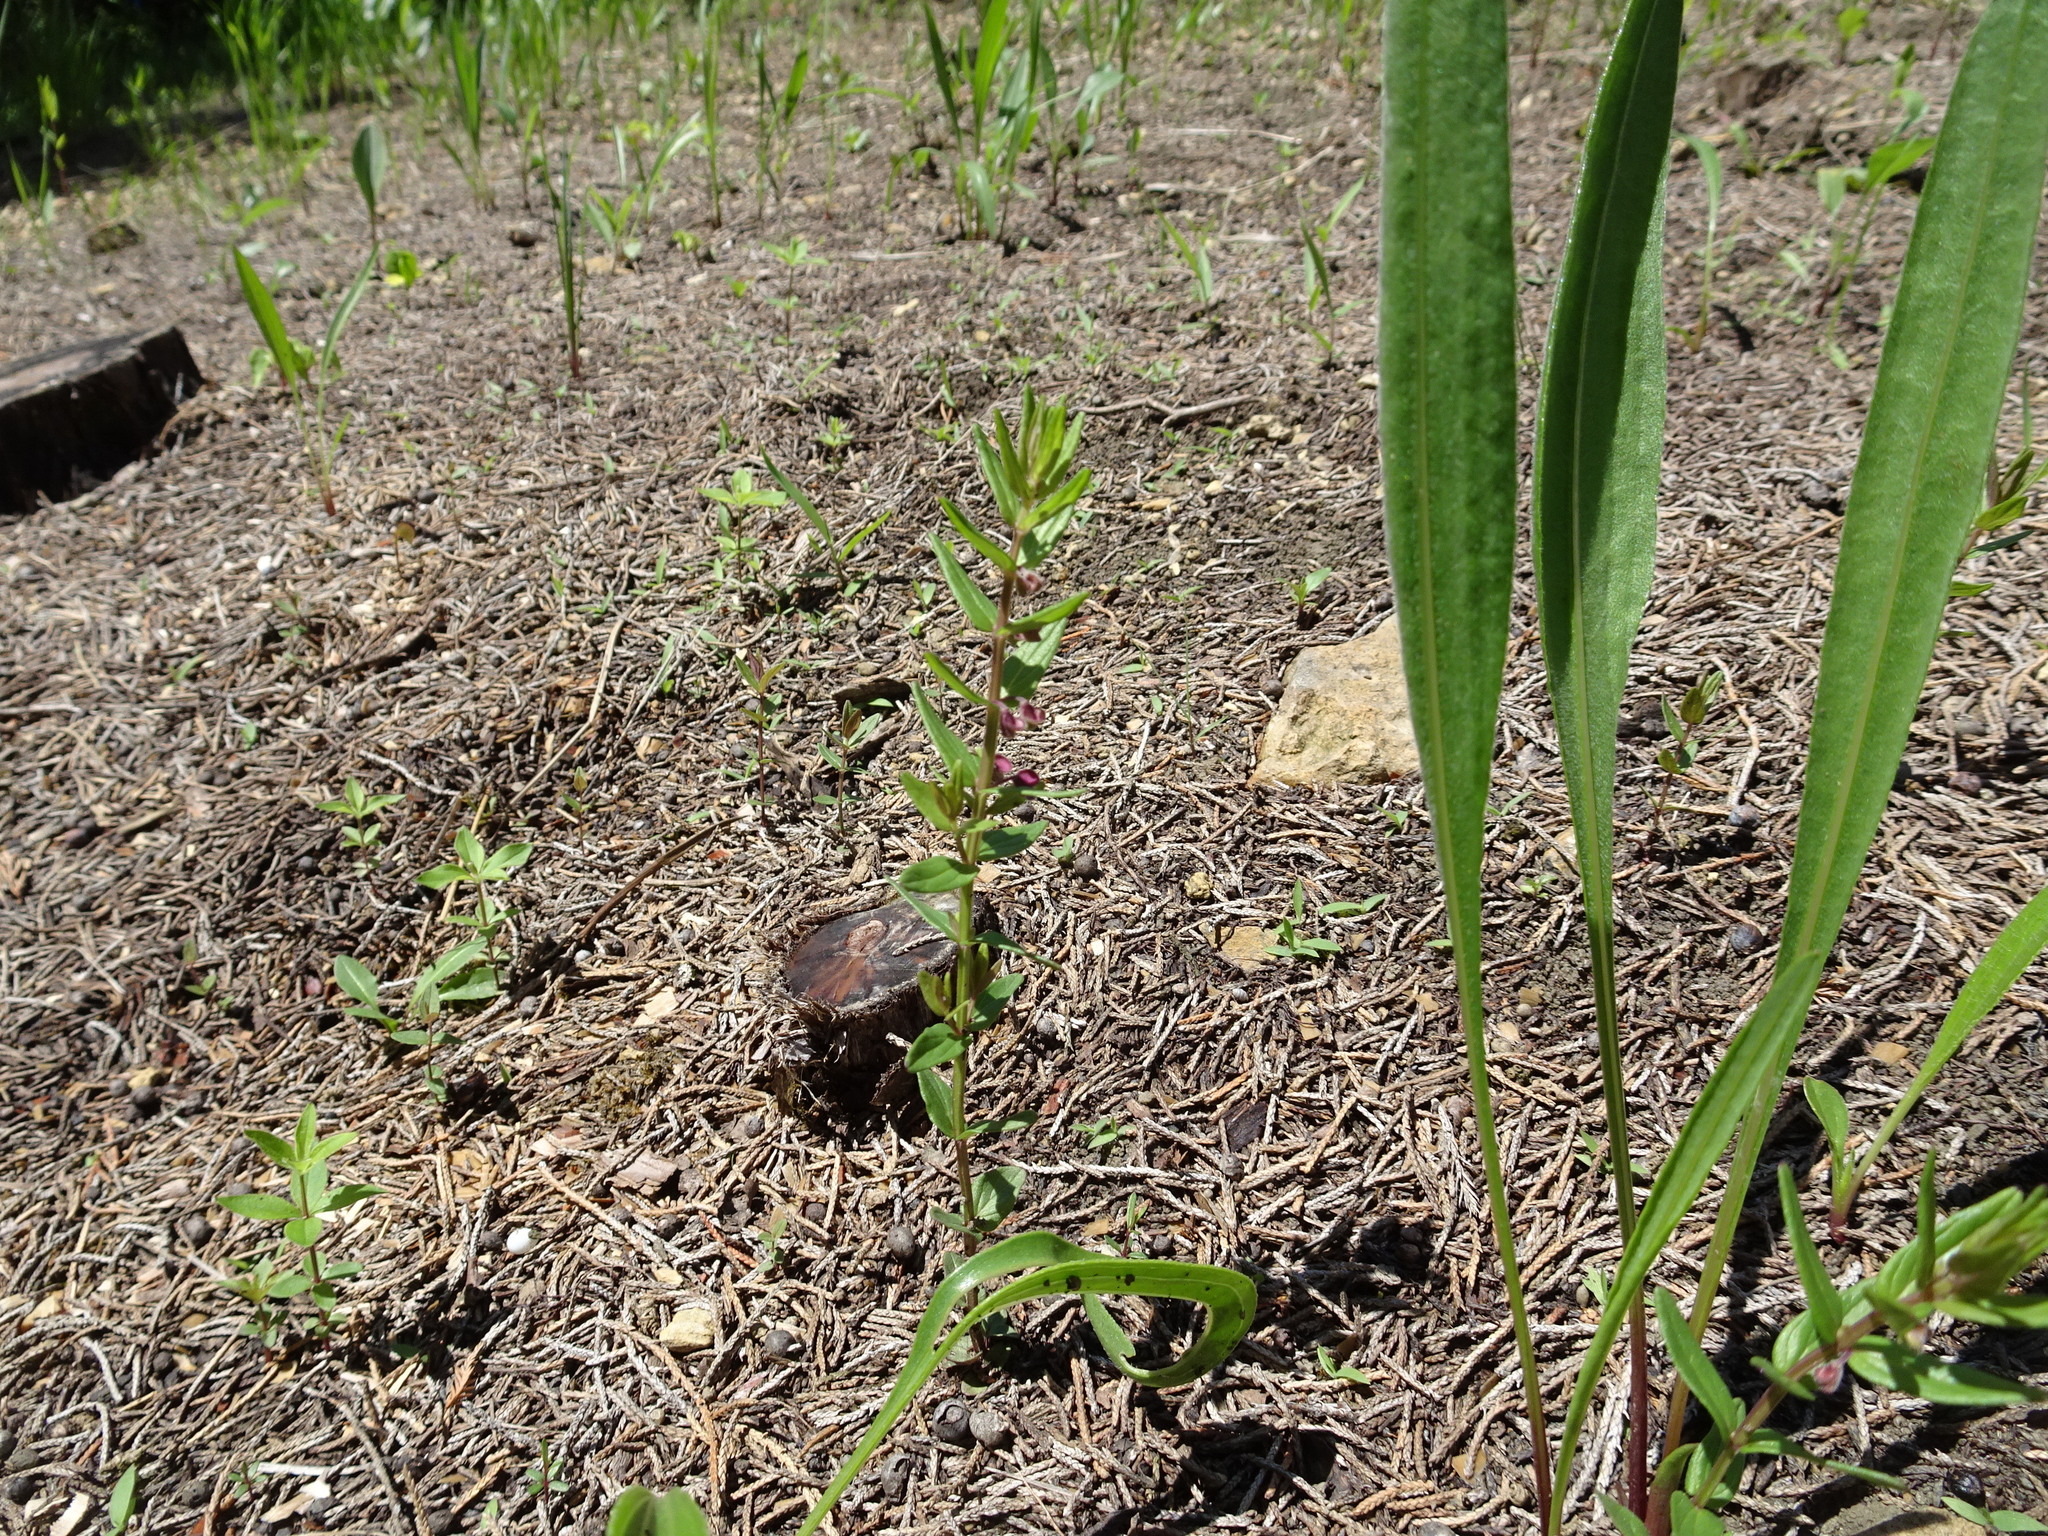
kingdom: Plantae
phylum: Tracheophyta
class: Magnoliopsida
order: Lamiales
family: Lamiaceae
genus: Scutellaria
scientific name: Scutellaria parvula
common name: Little scullcap
